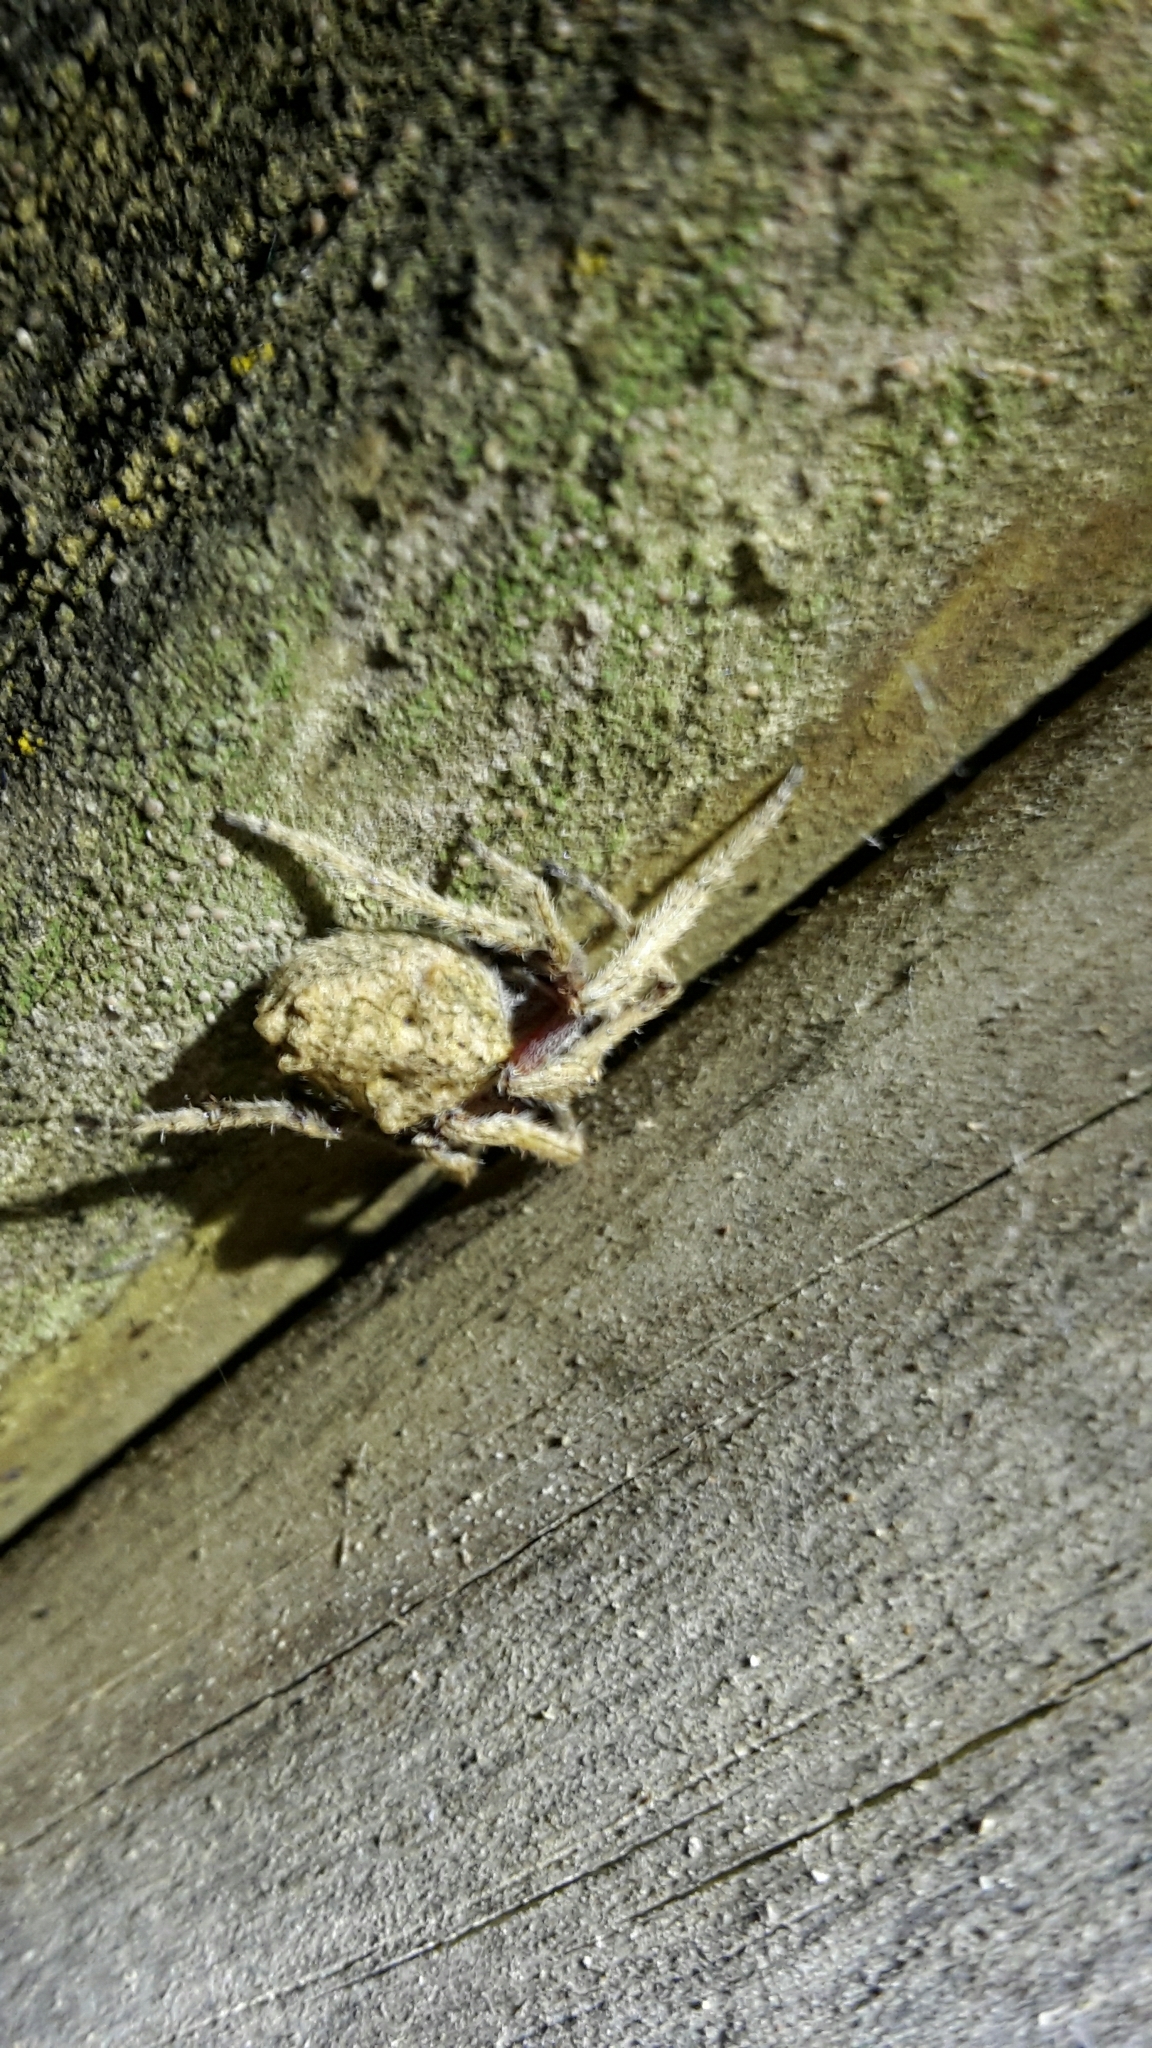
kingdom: Animalia
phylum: Arthropoda
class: Arachnida
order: Araneae
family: Araneidae
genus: Eriophora
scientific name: Eriophora pustulosa
